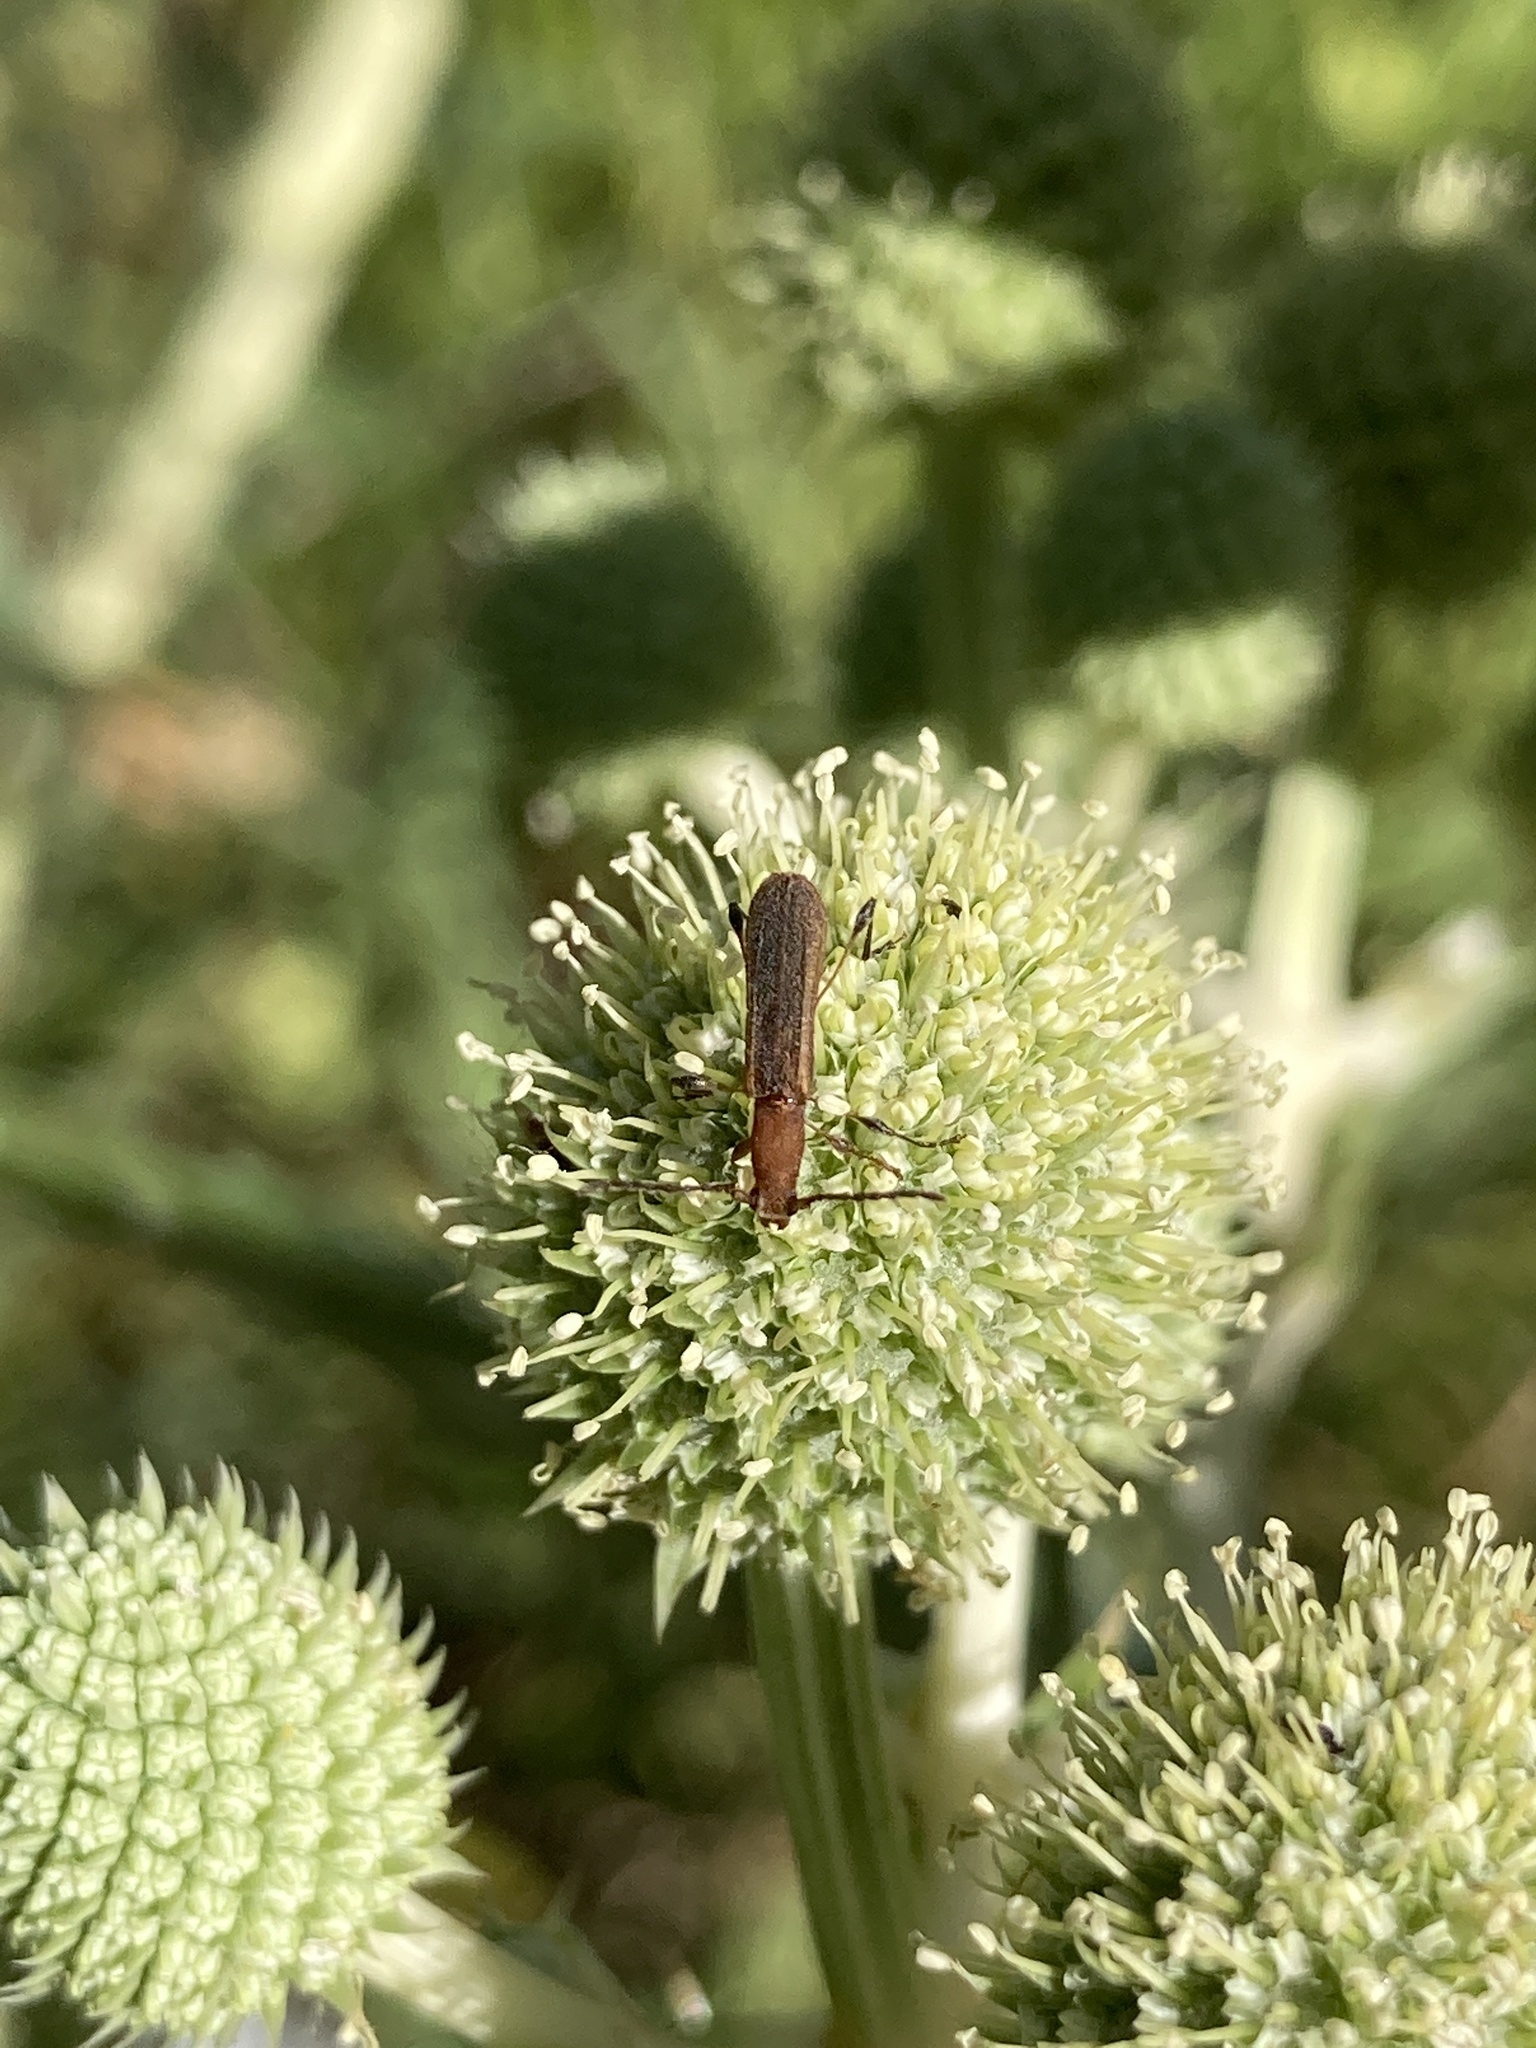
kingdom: Animalia
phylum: Arthropoda
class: Insecta
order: Coleoptera
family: Cerambycidae
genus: Dihammaphora
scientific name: Dihammaphora aepytus
